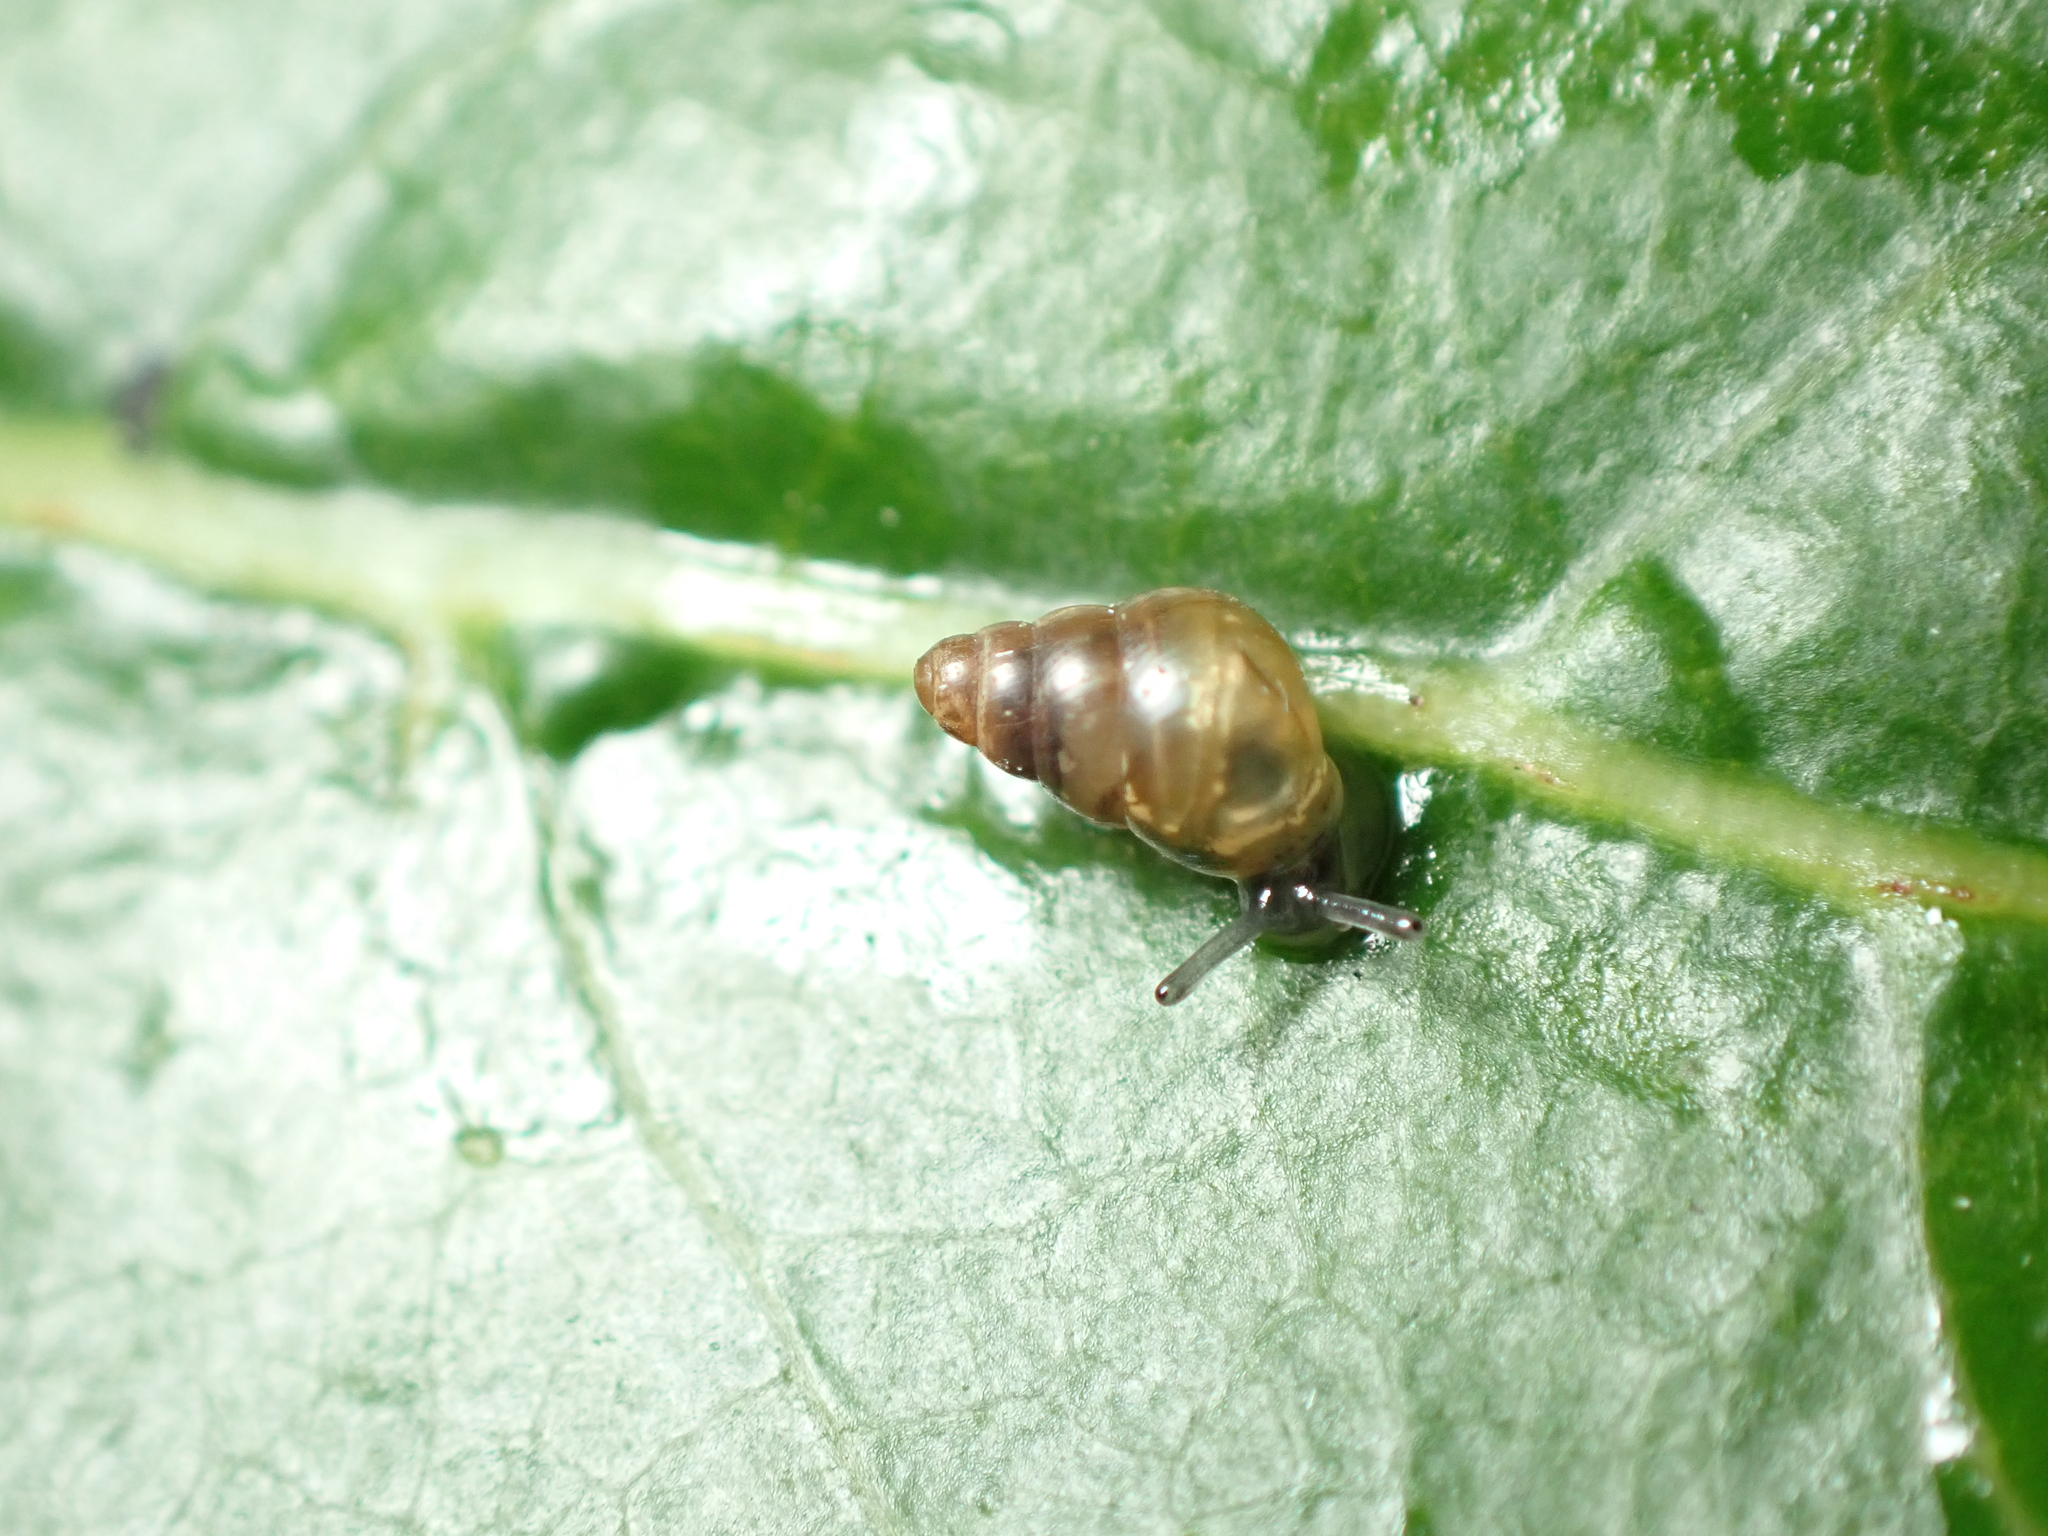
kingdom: Animalia
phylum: Mollusca
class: Gastropoda
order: Stylommatophora
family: Achatinellidae
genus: Tornatellides
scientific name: Tornatellides subperforatus
